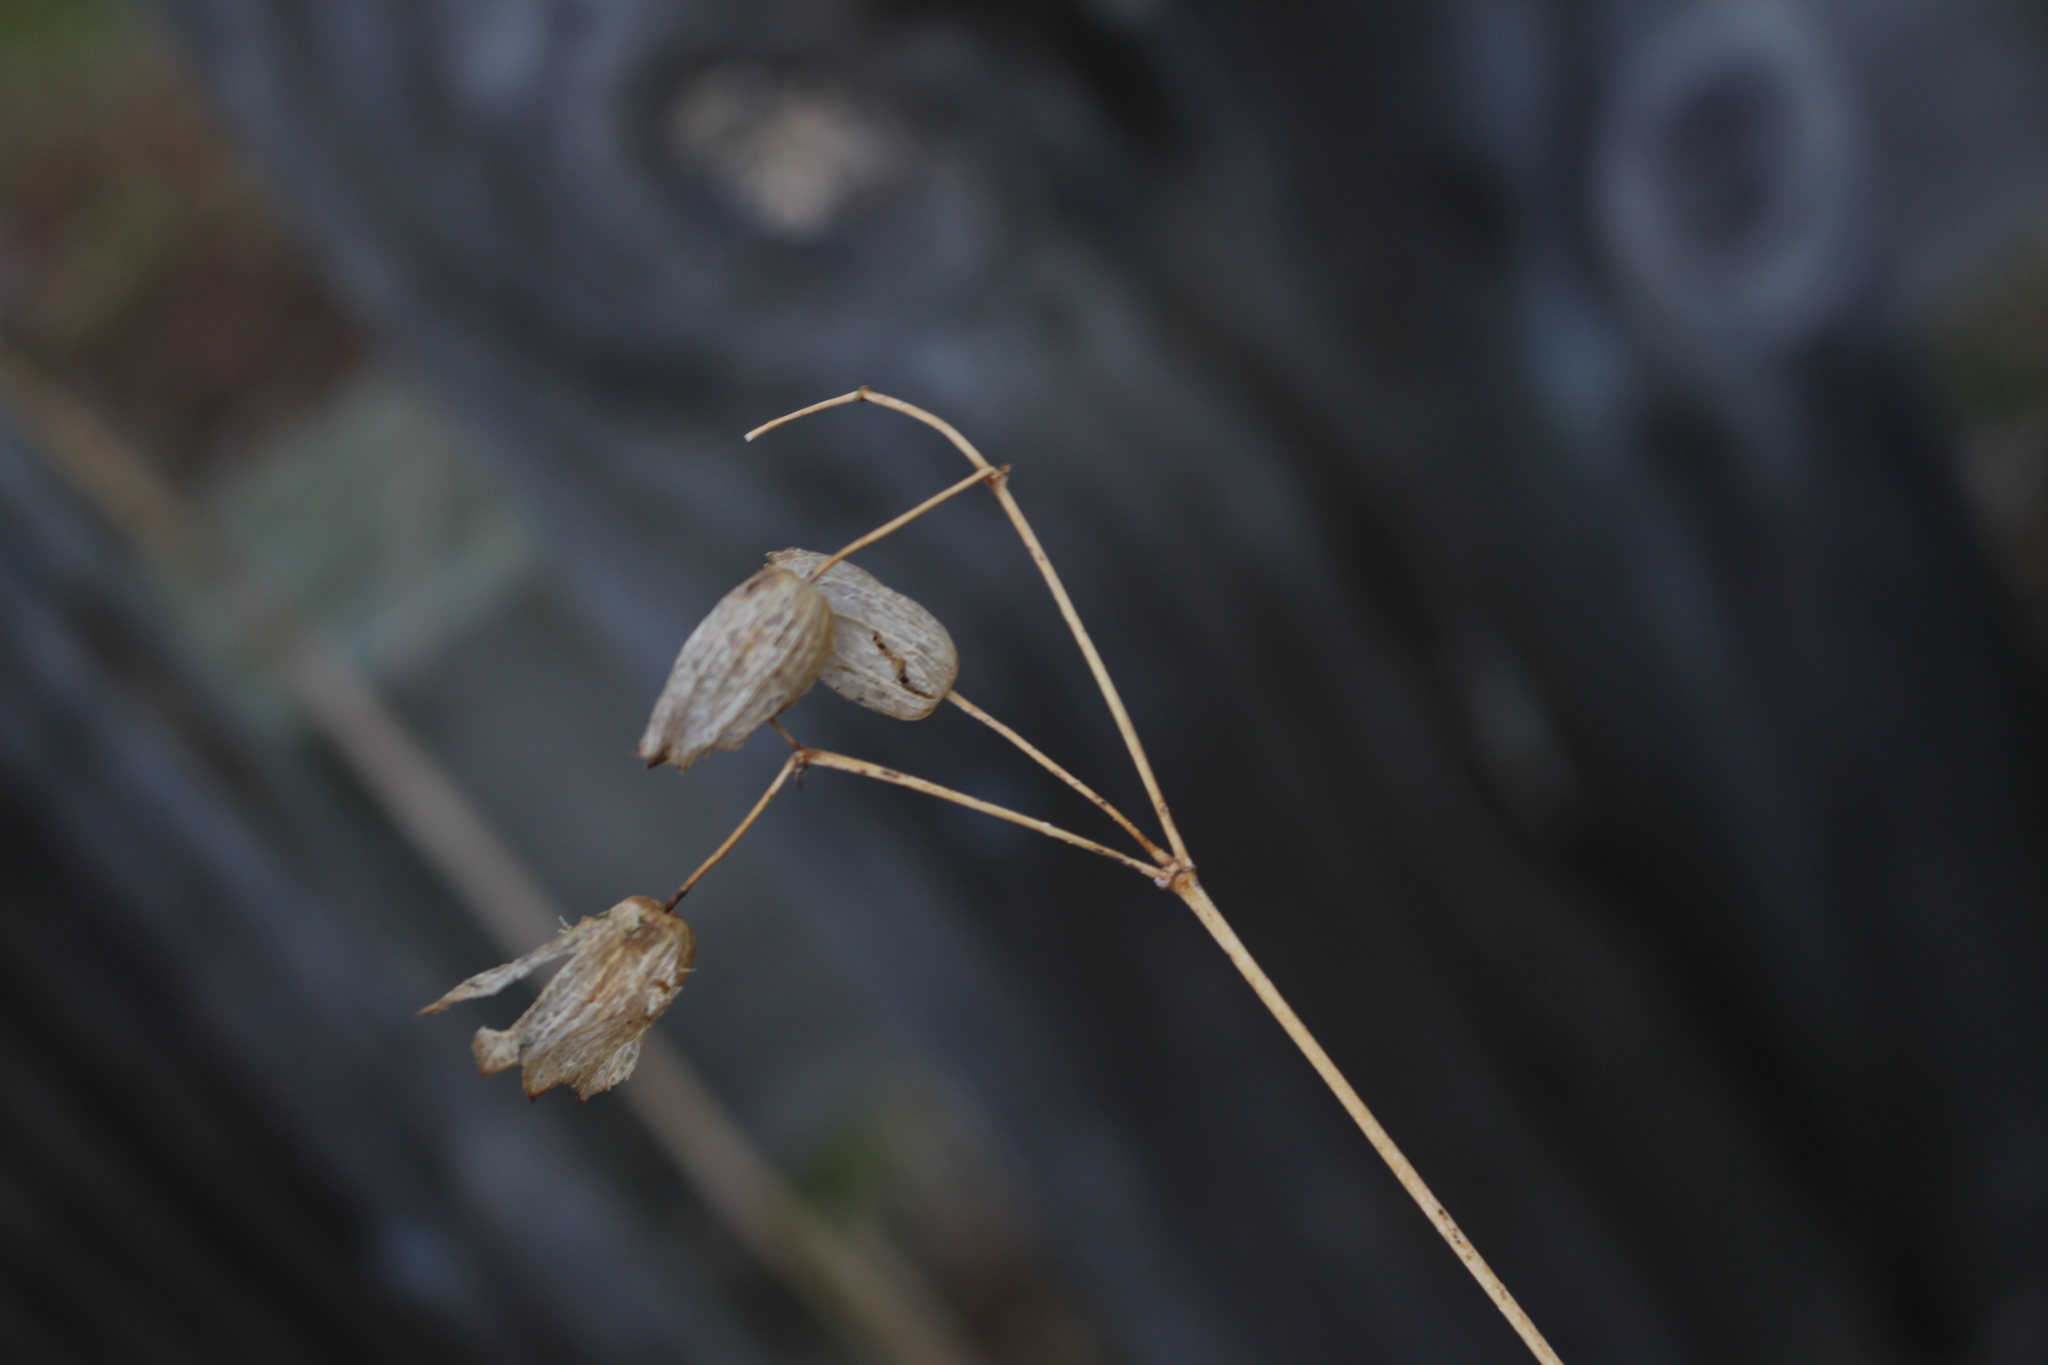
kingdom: Plantae
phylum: Tracheophyta
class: Magnoliopsida
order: Caryophyllales
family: Caryophyllaceae
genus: Silene
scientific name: Silene vulgaris
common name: Bladder campion
